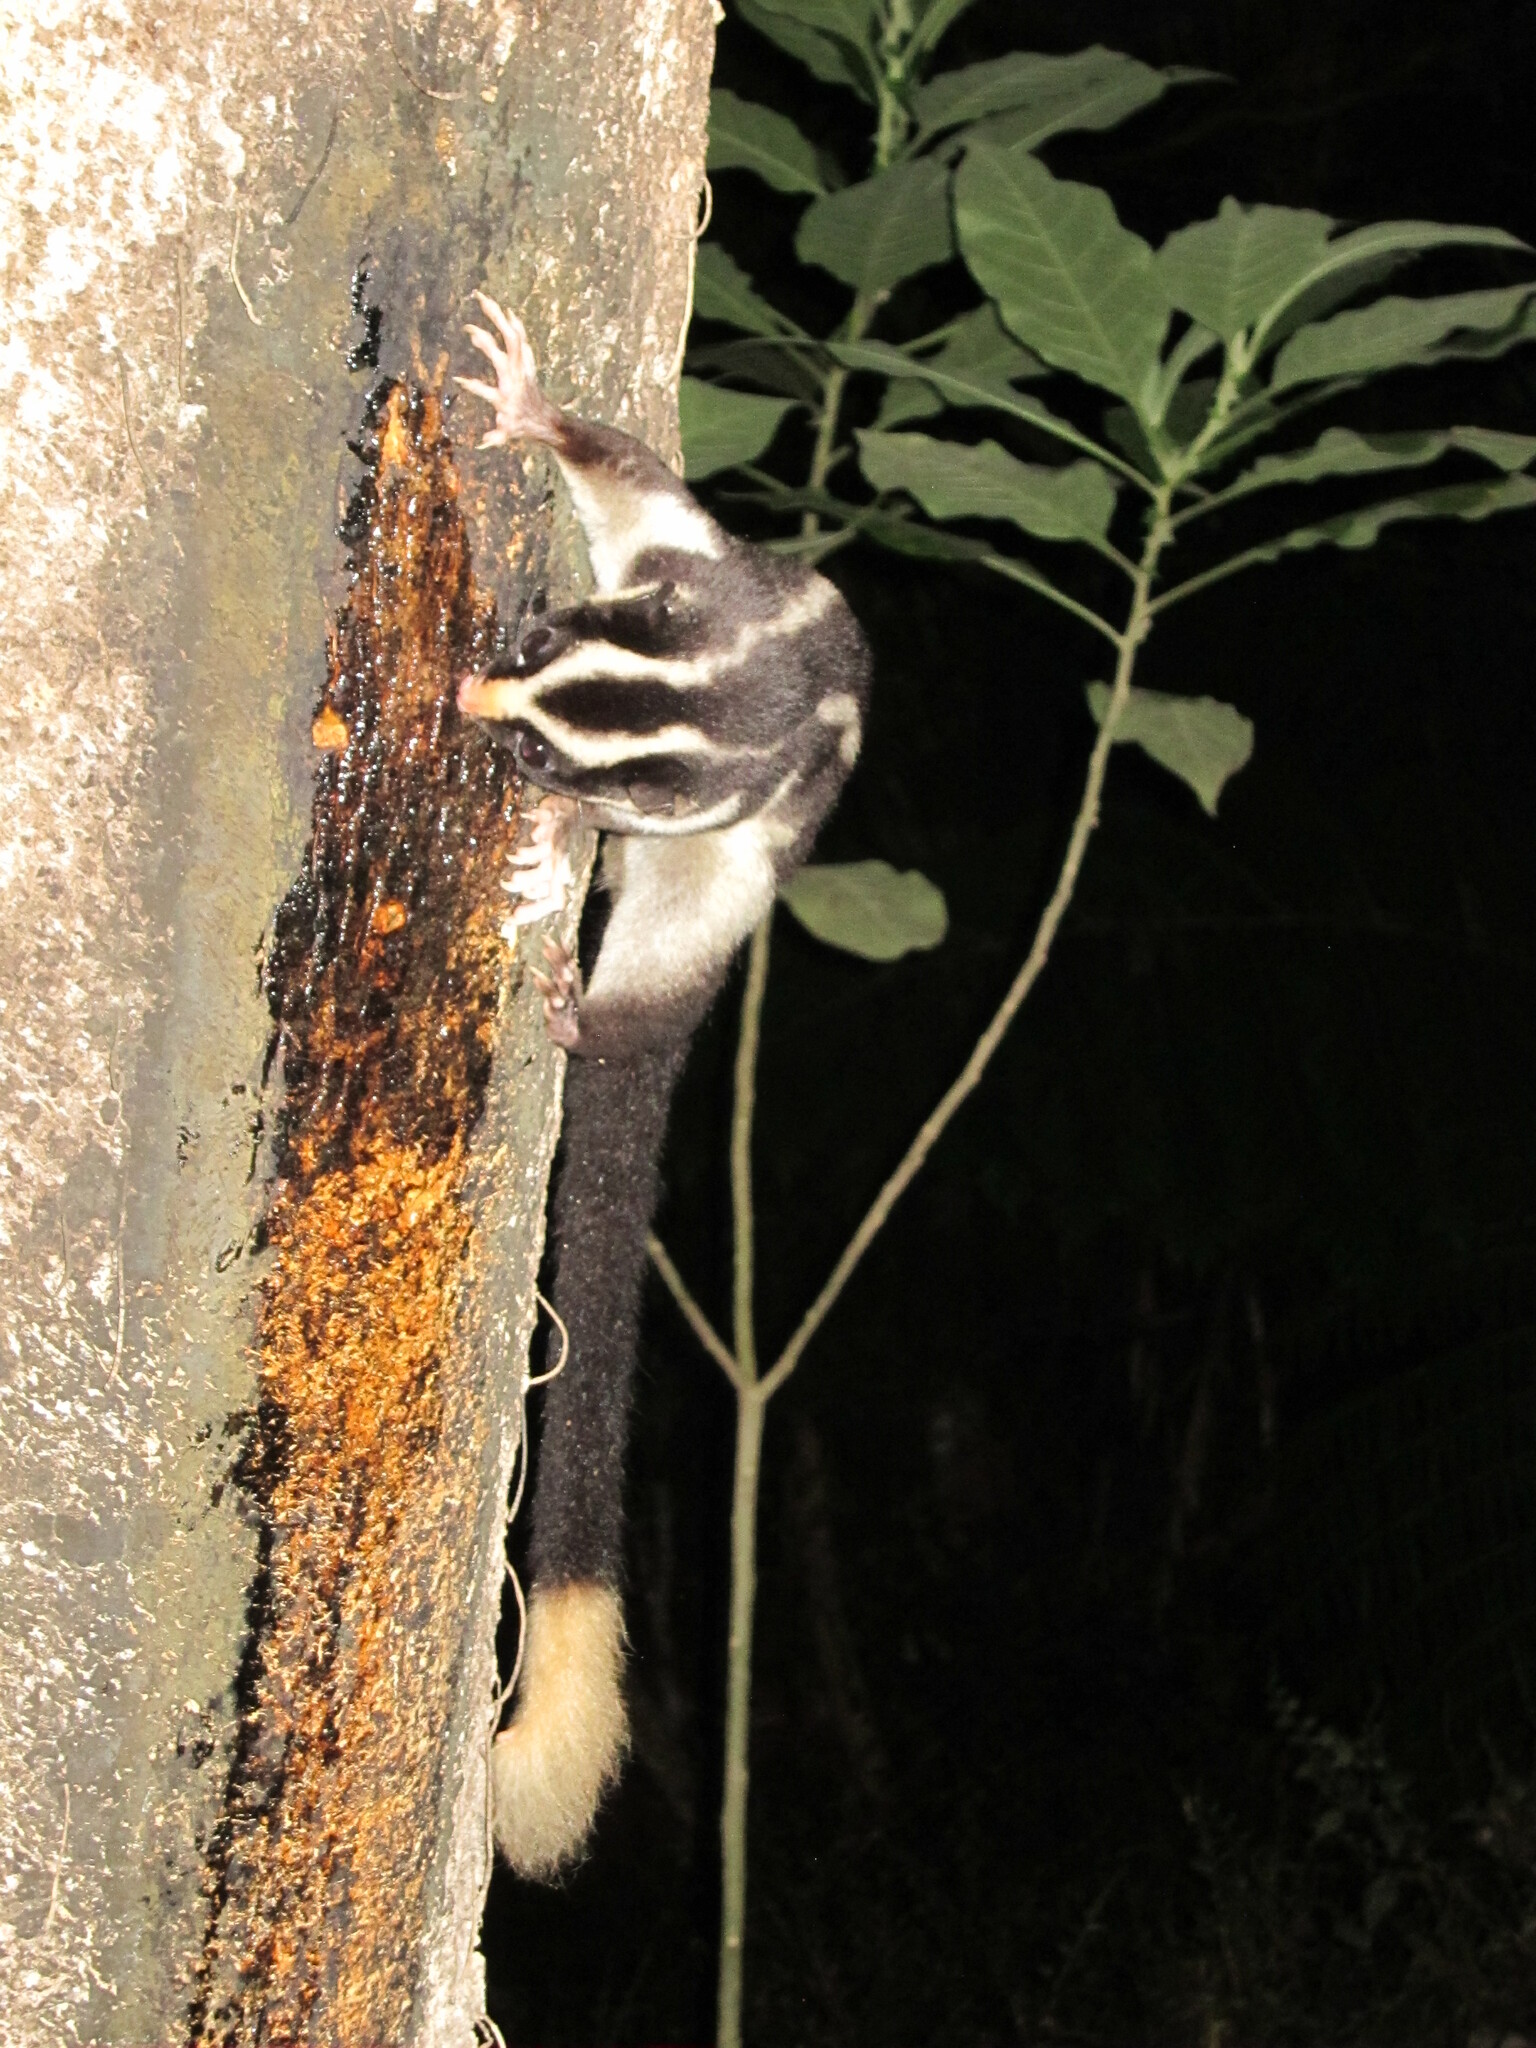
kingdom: Animalia
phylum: Chordata
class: Mammalia
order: Diprotodontia
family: Petauridae
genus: Dactylopsila
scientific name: Dactylopsila trivirgata
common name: Striped possum
